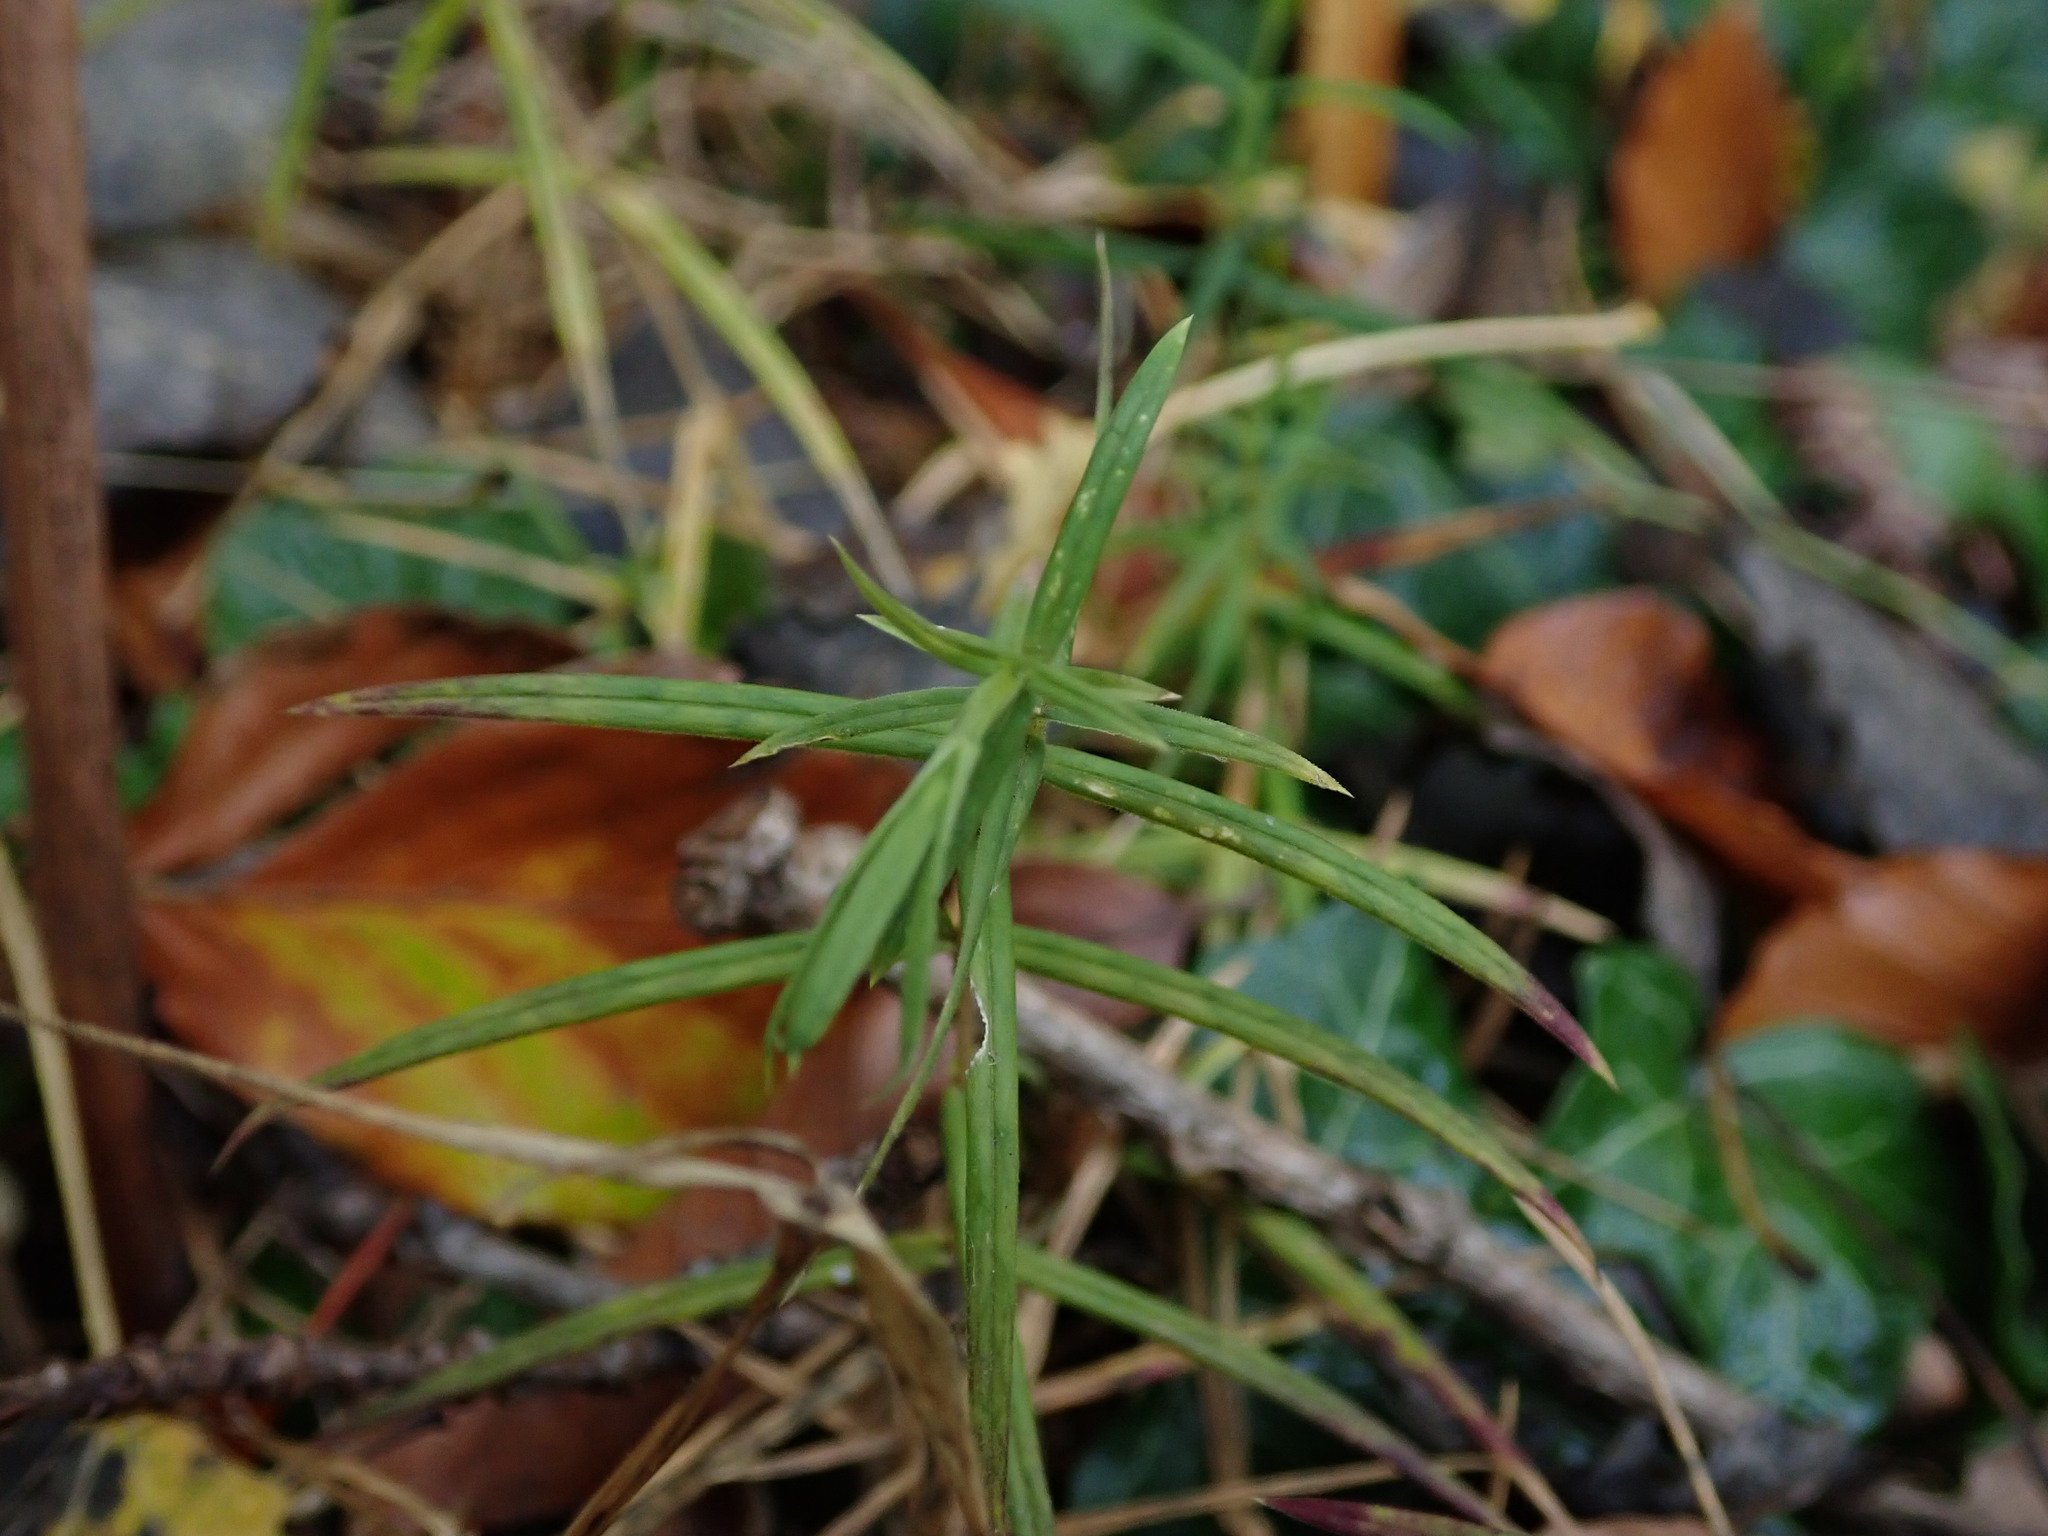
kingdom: Plantae
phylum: Tracheophyta
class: Magnoliopsida
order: Caryophyllales
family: Caryophyllaceae
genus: Rabelera
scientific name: Rabelera holostea
